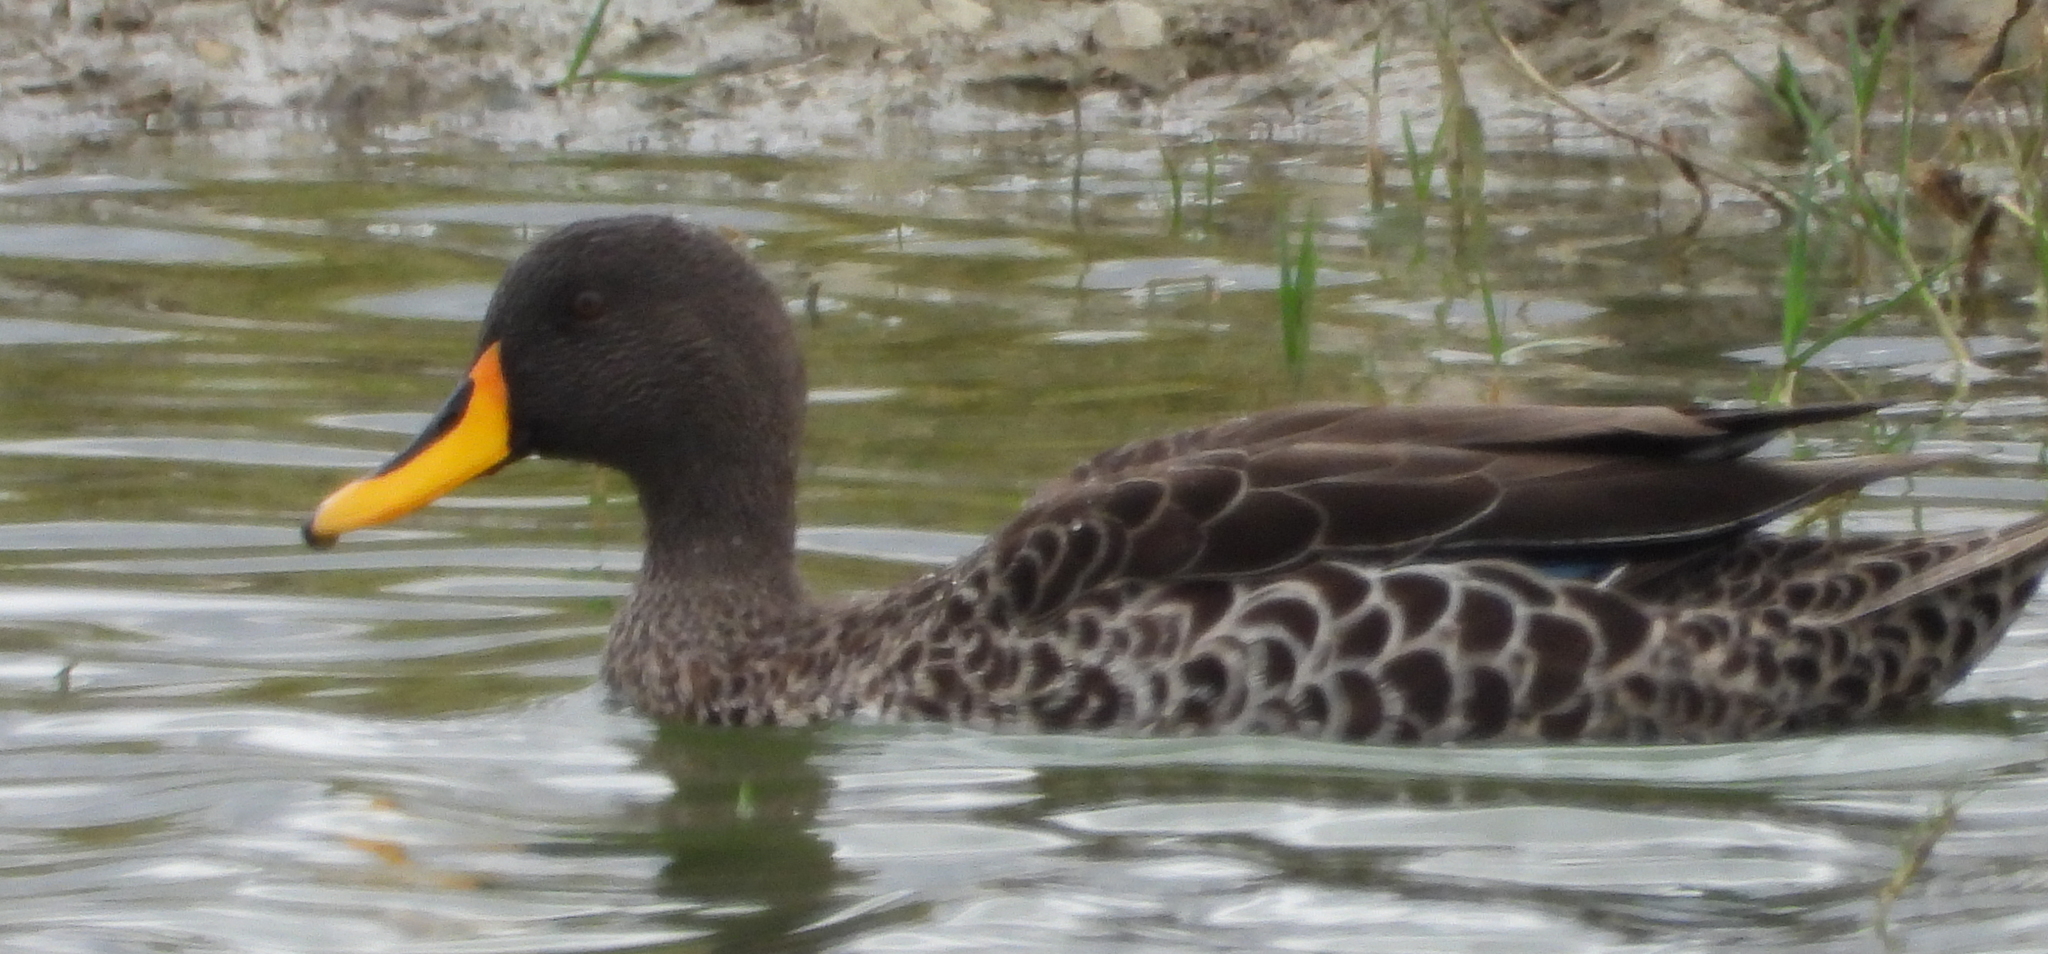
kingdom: Animalia
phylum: Chordata
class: Aves
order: Anseriformes
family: Anatidae
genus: Anas
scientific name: Anas undulata
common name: Yellow-billed duck
